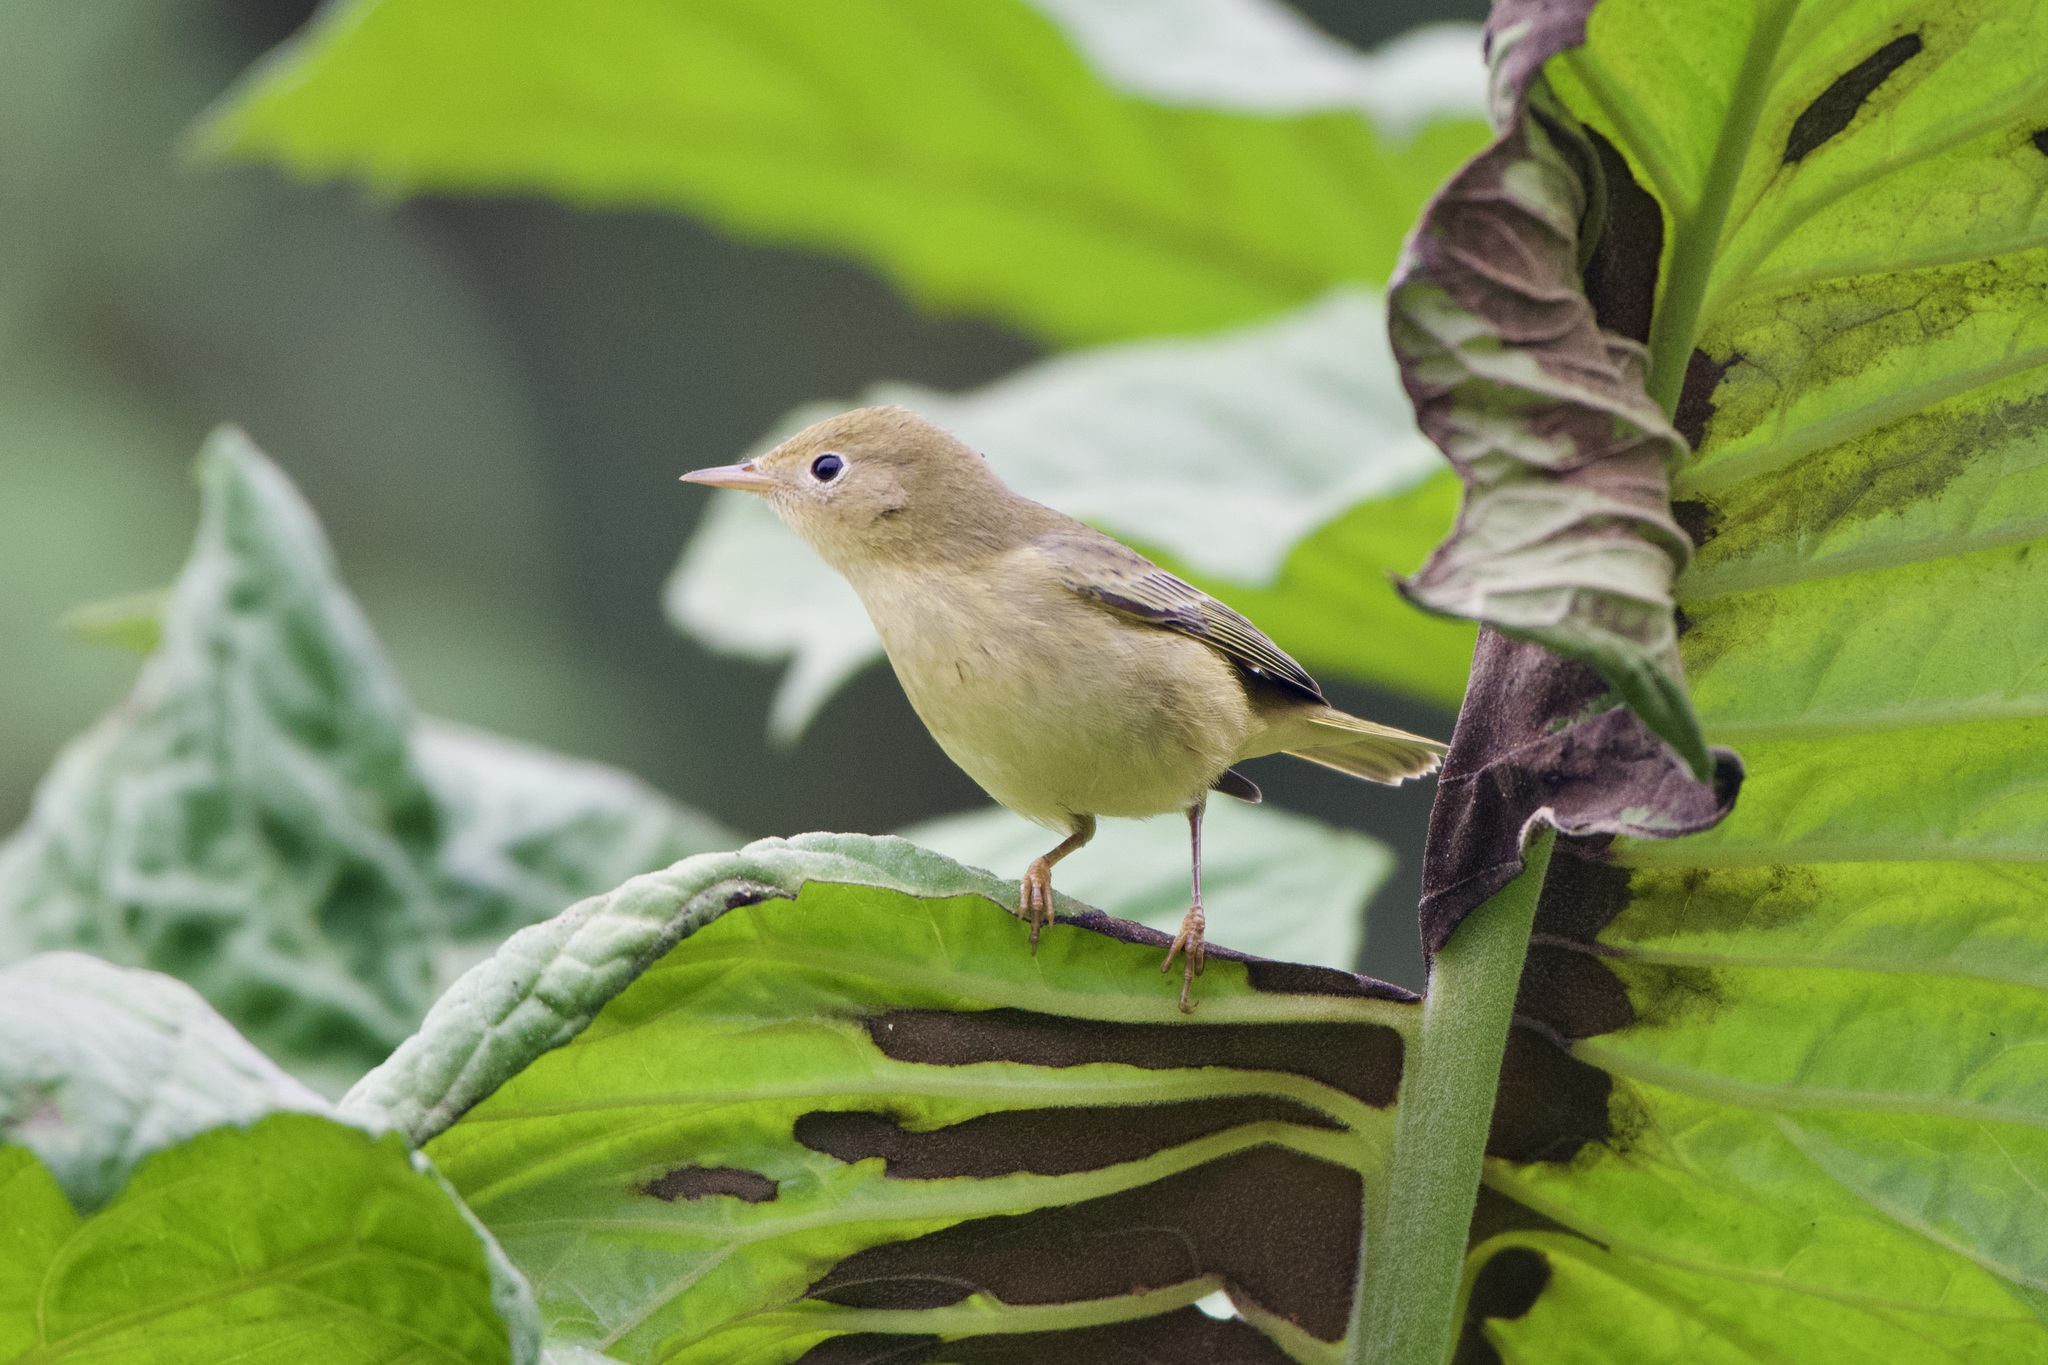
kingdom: Animalia
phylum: Chordata
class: Aves
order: Passeriformes
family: Parulidae
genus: Setophaga
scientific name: Setophaga petechia
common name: Yellow warbler
